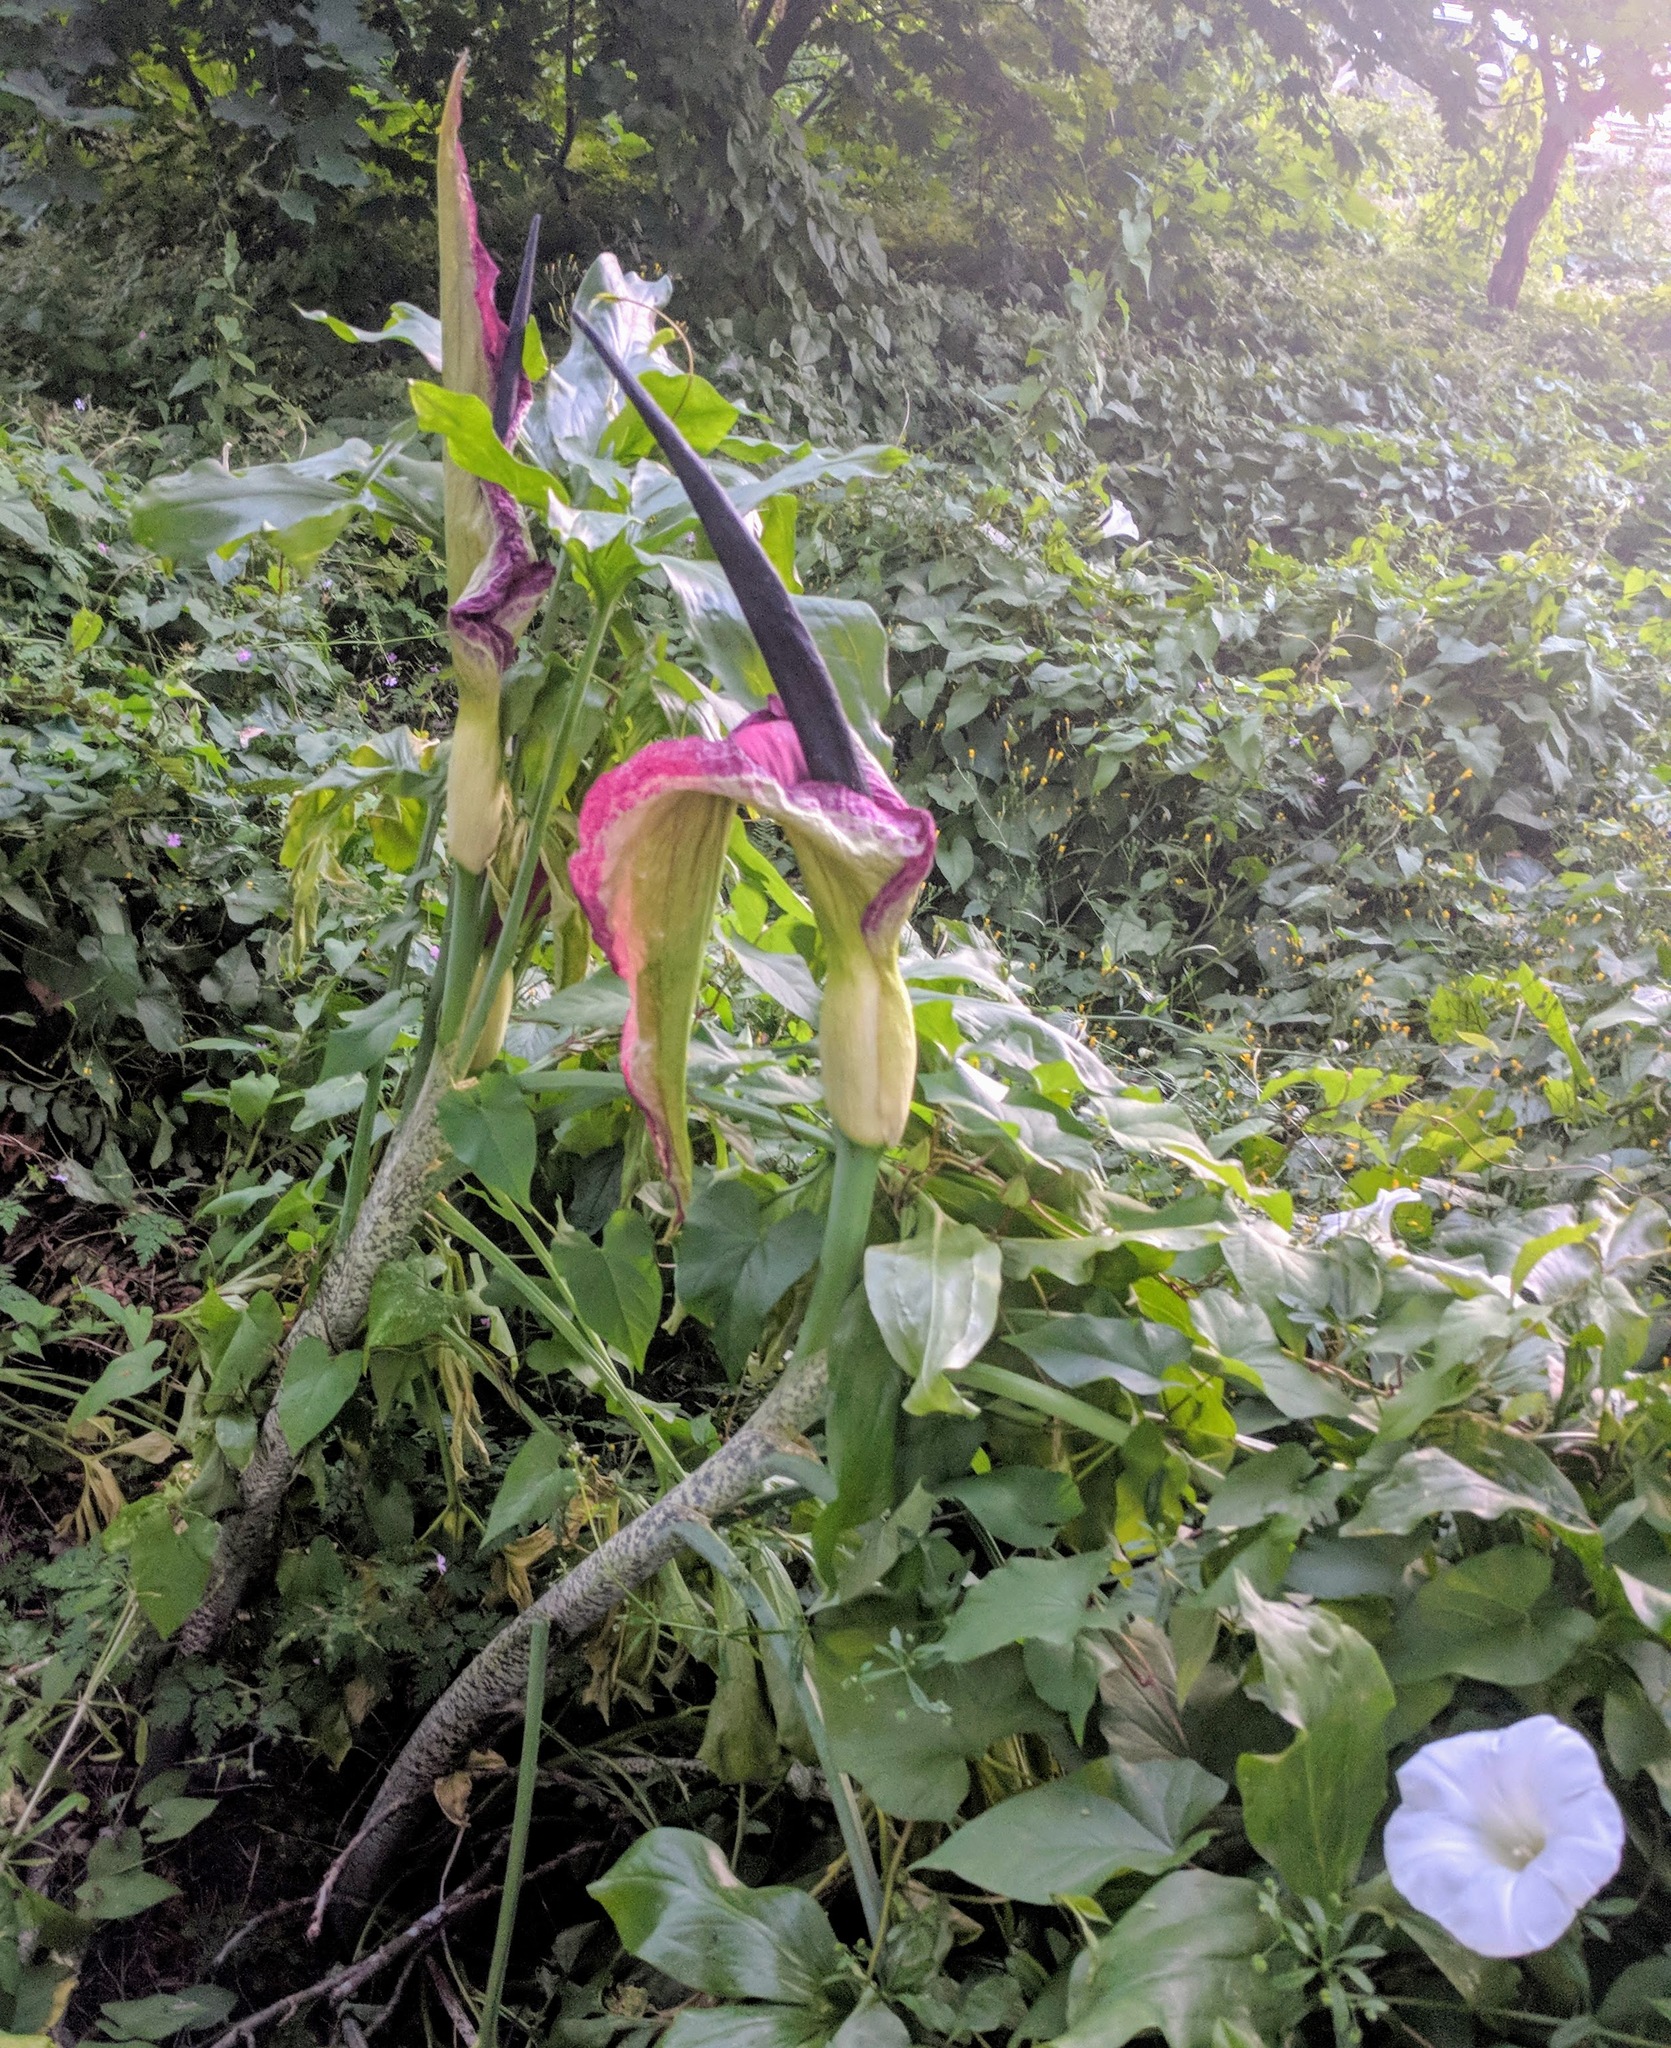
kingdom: Plantae
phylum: Tracheophyta
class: Liliopsida
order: Alismatales
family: Araceae
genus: Dracunculus
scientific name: Dracunculus vulgaris
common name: Dragon arum
